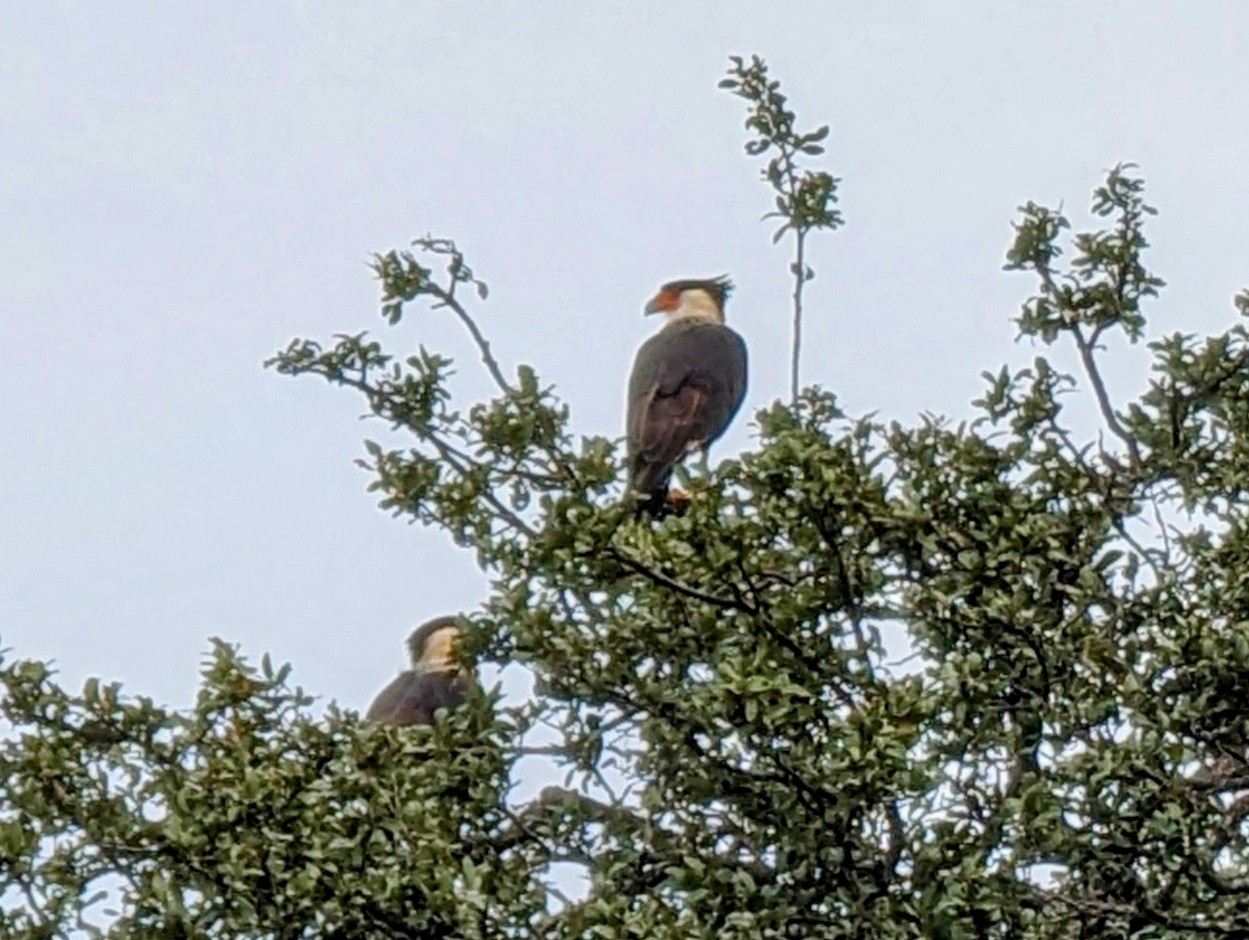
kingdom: Animalia
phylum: Chordata
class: Aves
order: Falconiformes
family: Falconidae
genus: Caracara
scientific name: Caracara plancus
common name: Southern caracara
